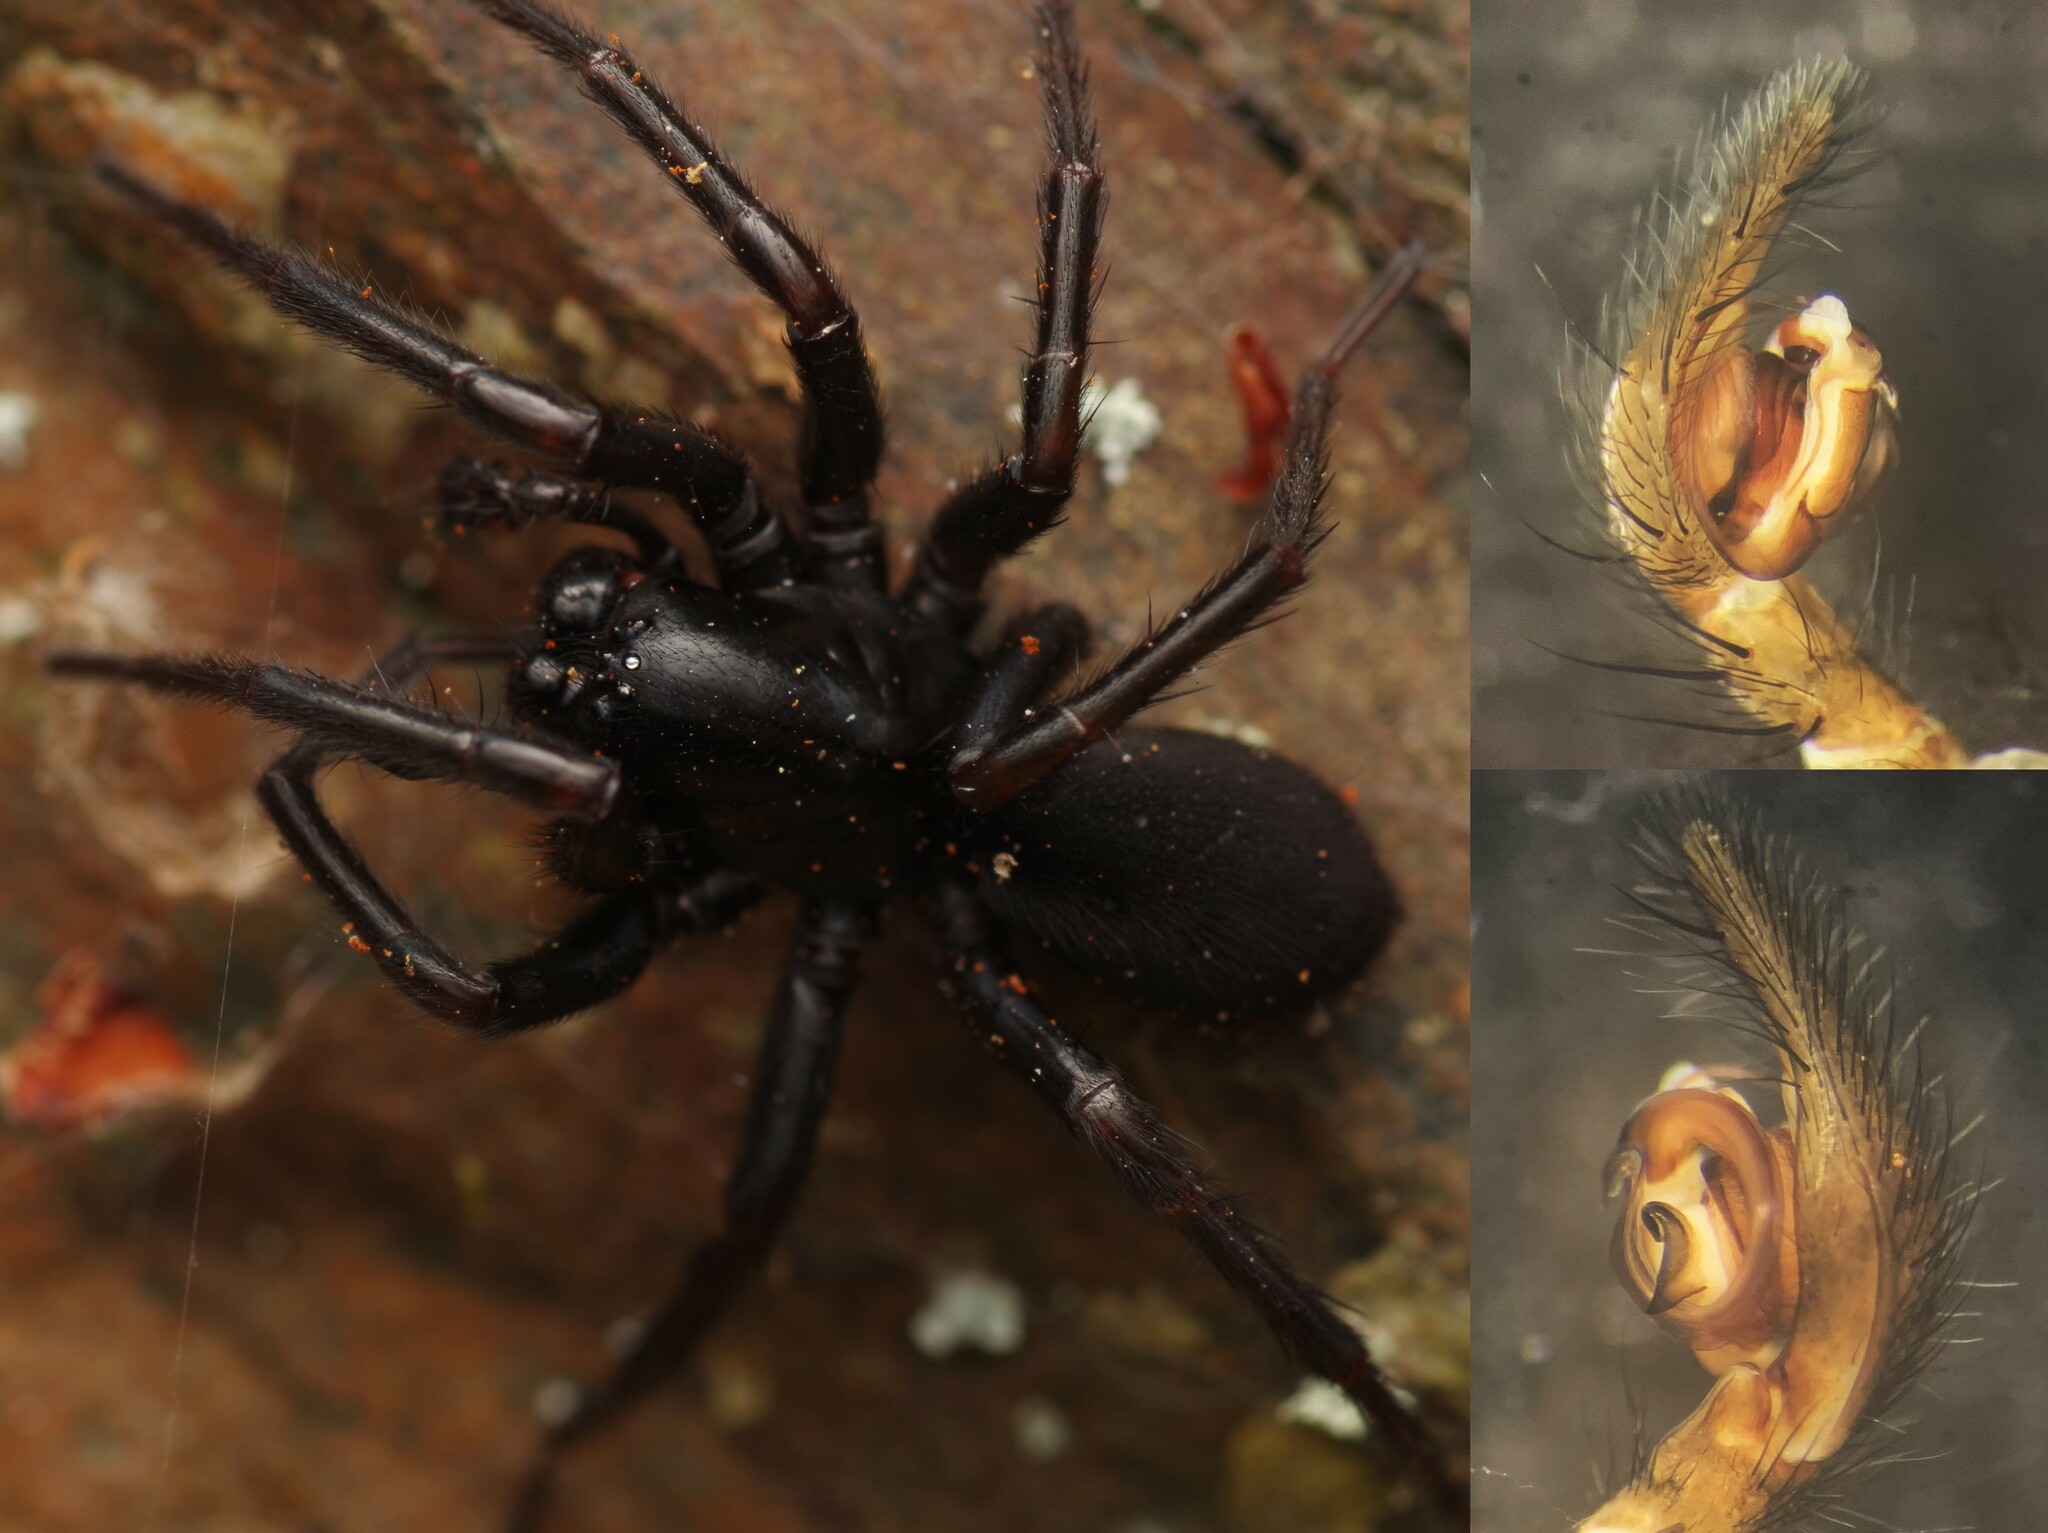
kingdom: Animalia
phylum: Arthropoda
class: Arachnida
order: Araneae
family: Agelenidae
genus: Pireneitega
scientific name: Pireneitega segestriformis
